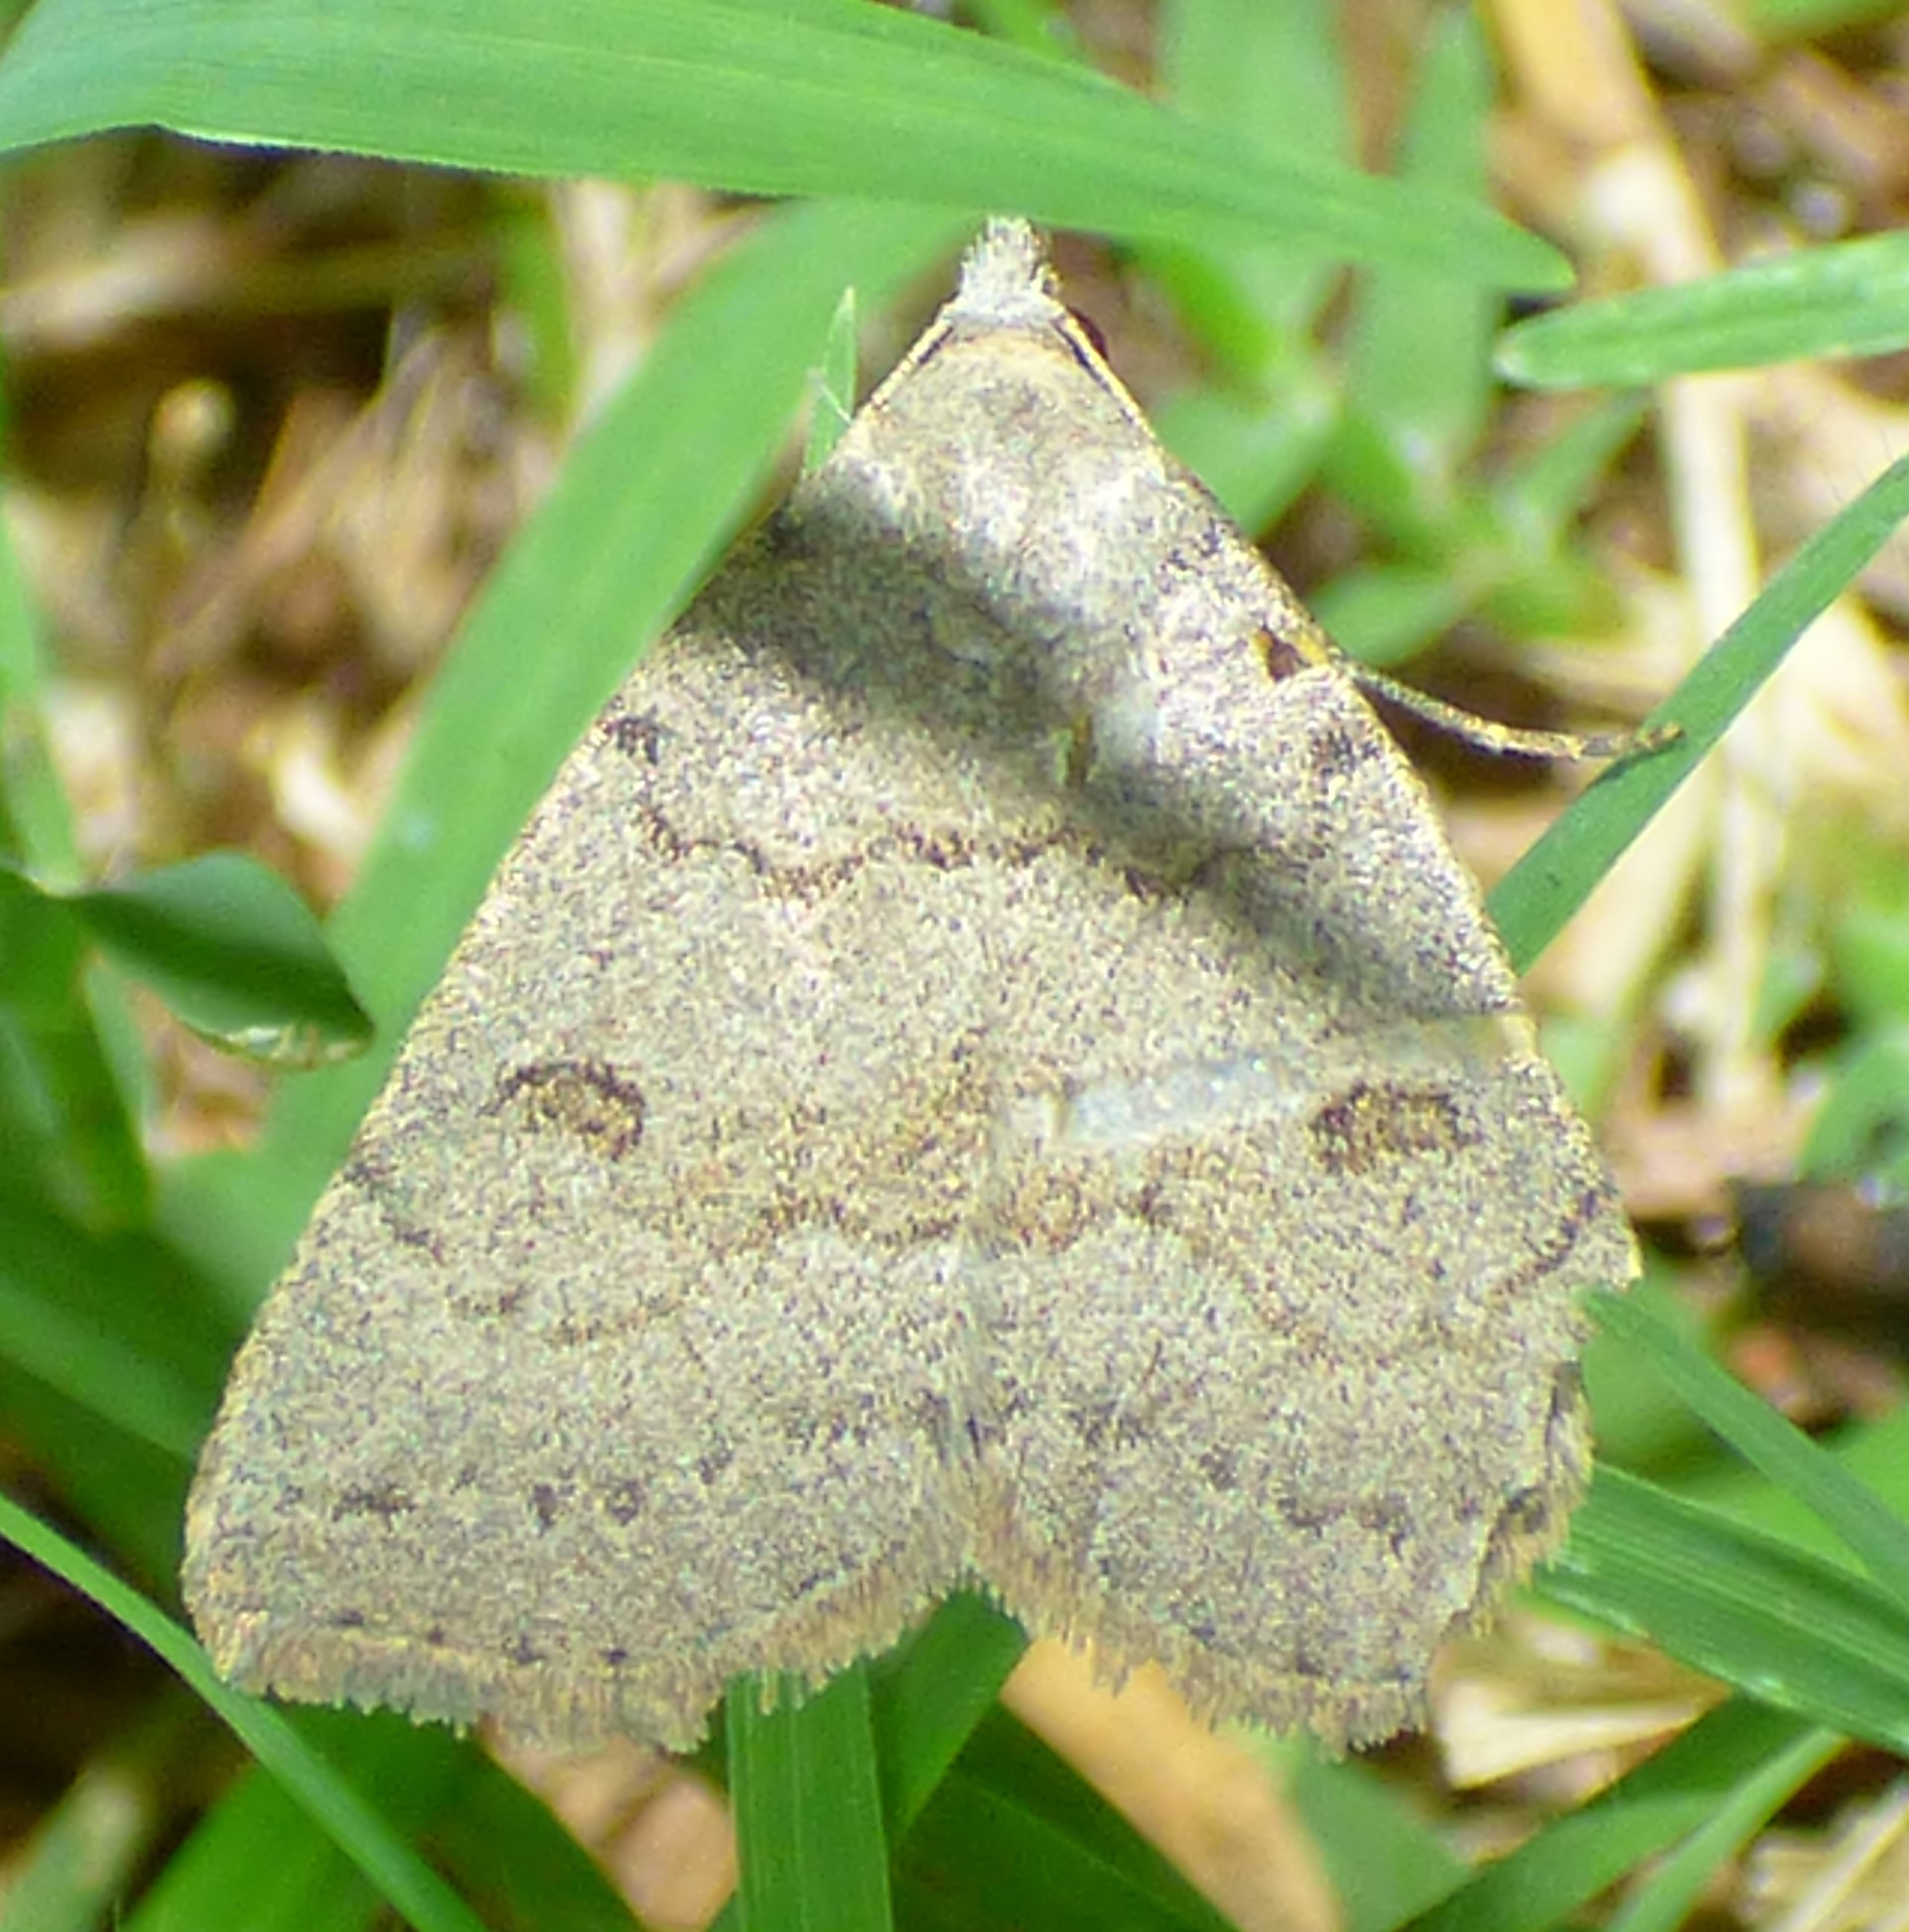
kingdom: Animalia
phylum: Arthropoda
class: Insecta
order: Lepidoptera
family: Erebidae
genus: Macrochilo
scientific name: Macrochilo morbidalis
